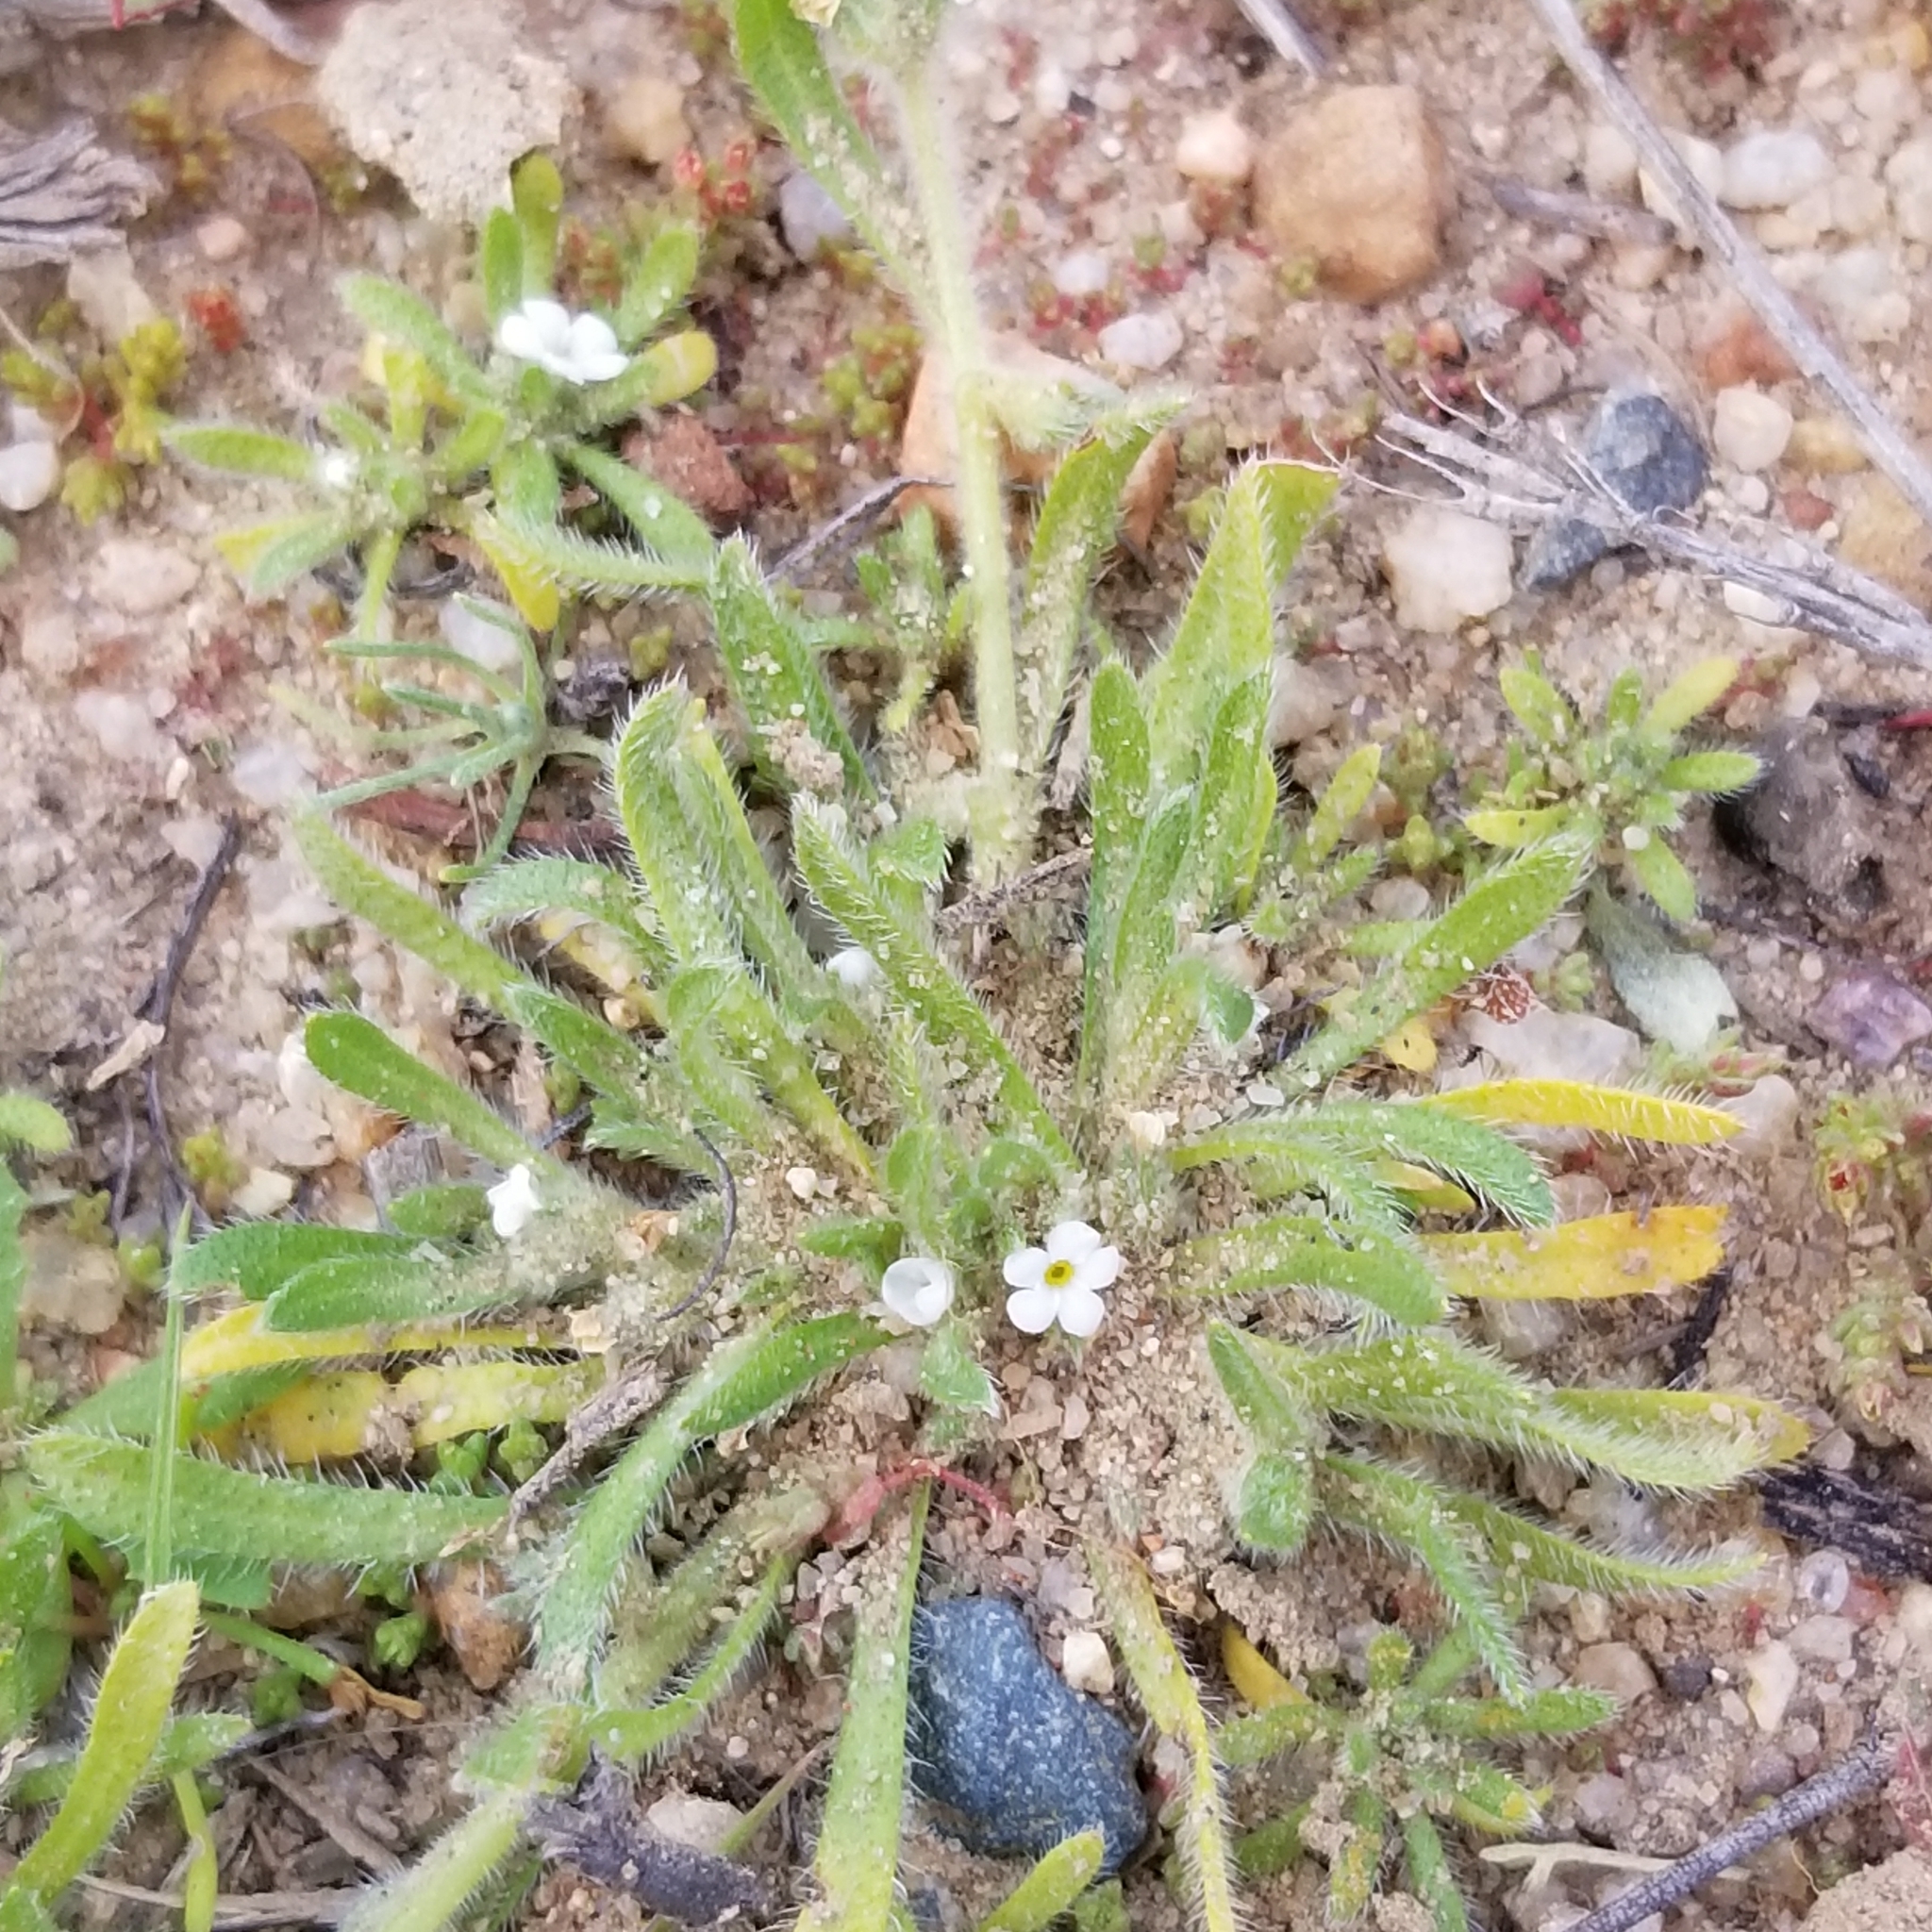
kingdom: Plantae
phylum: Tracheophyta
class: Magnoliopsida
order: Boraginales
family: Boraginaceae
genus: Plagiobothrys
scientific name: Plagiobothrys collinus
